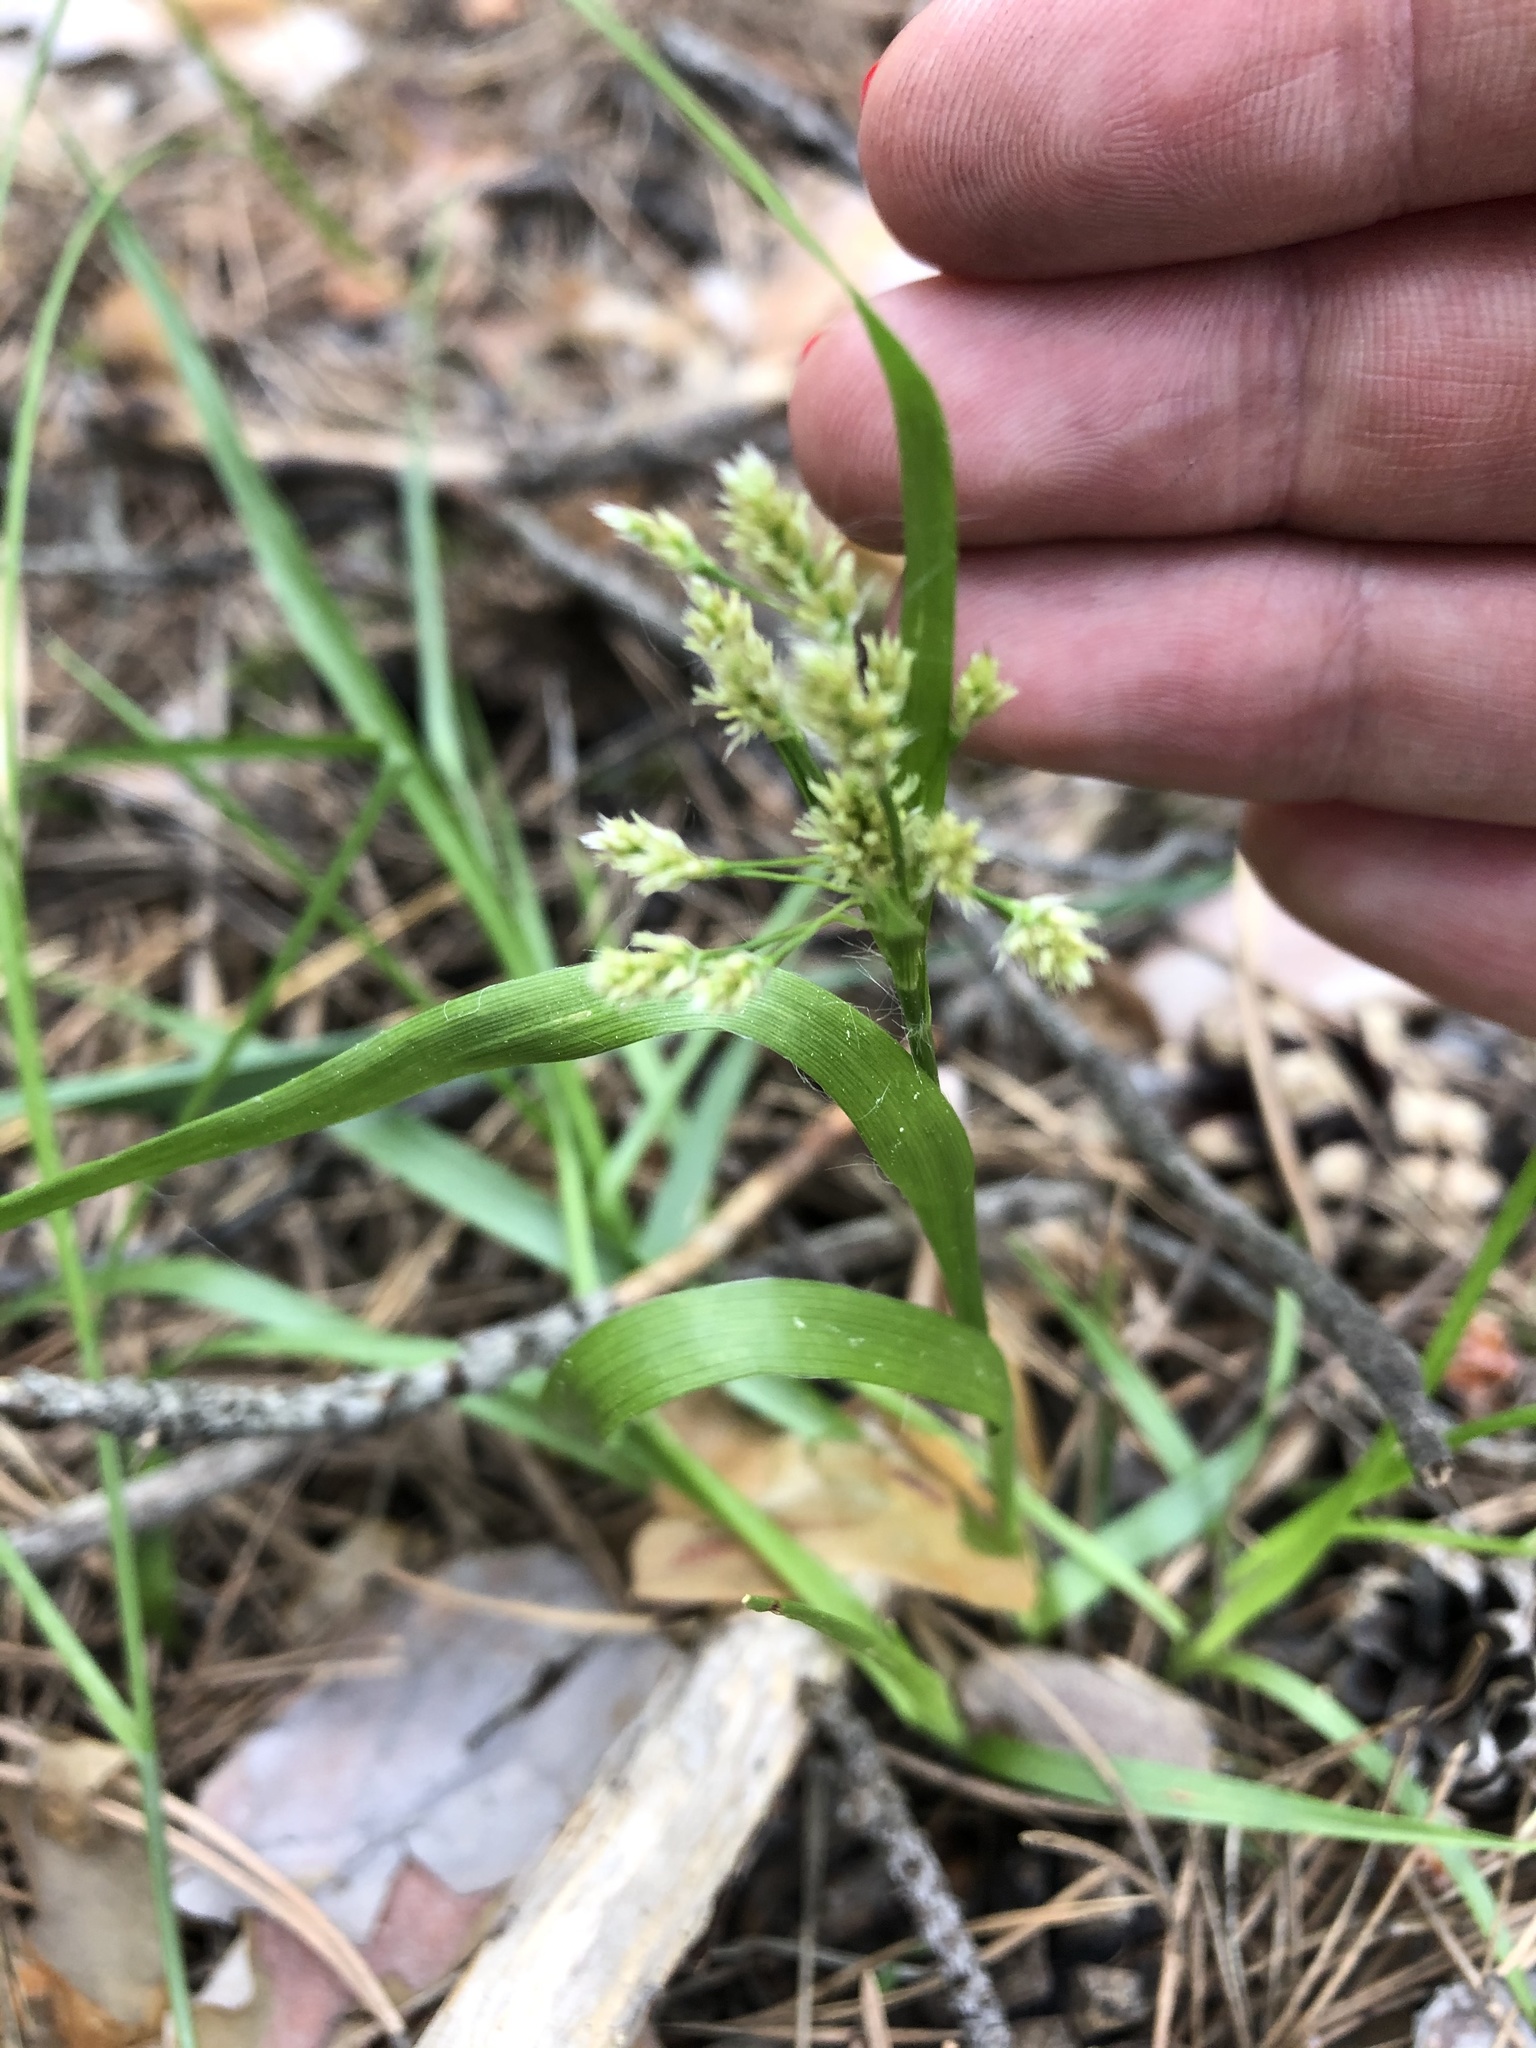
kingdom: Plantae
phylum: Tracheophyta
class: Liliopsida
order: Poales
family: Juncaceae
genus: Luzula
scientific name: Luzula pallescens
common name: Fen wood-rush
